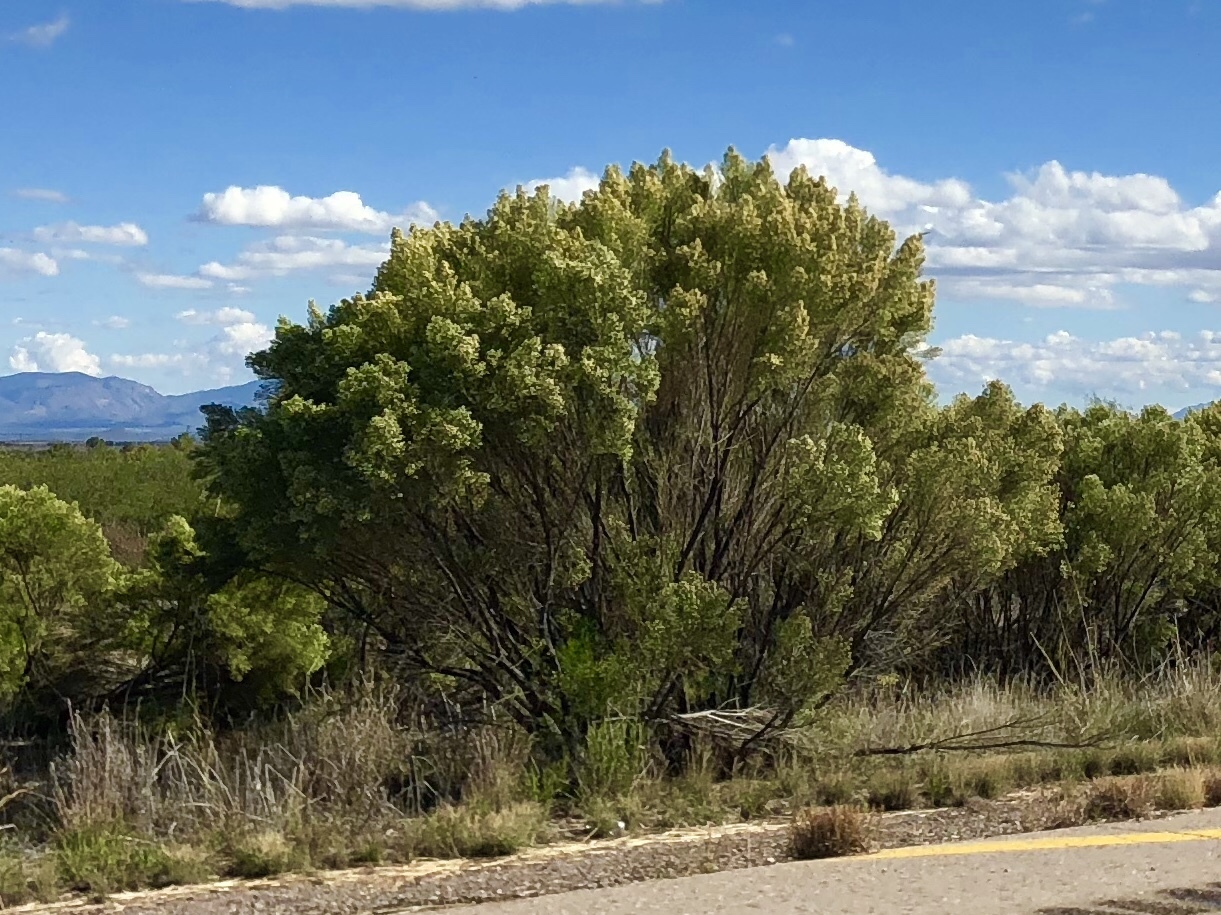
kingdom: Plantae
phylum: Tracheophyta
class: Magnoliopsida
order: Asterales
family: Asteraceae
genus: Baccharis
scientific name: Baccharis sarothroides
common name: Desert-broom
